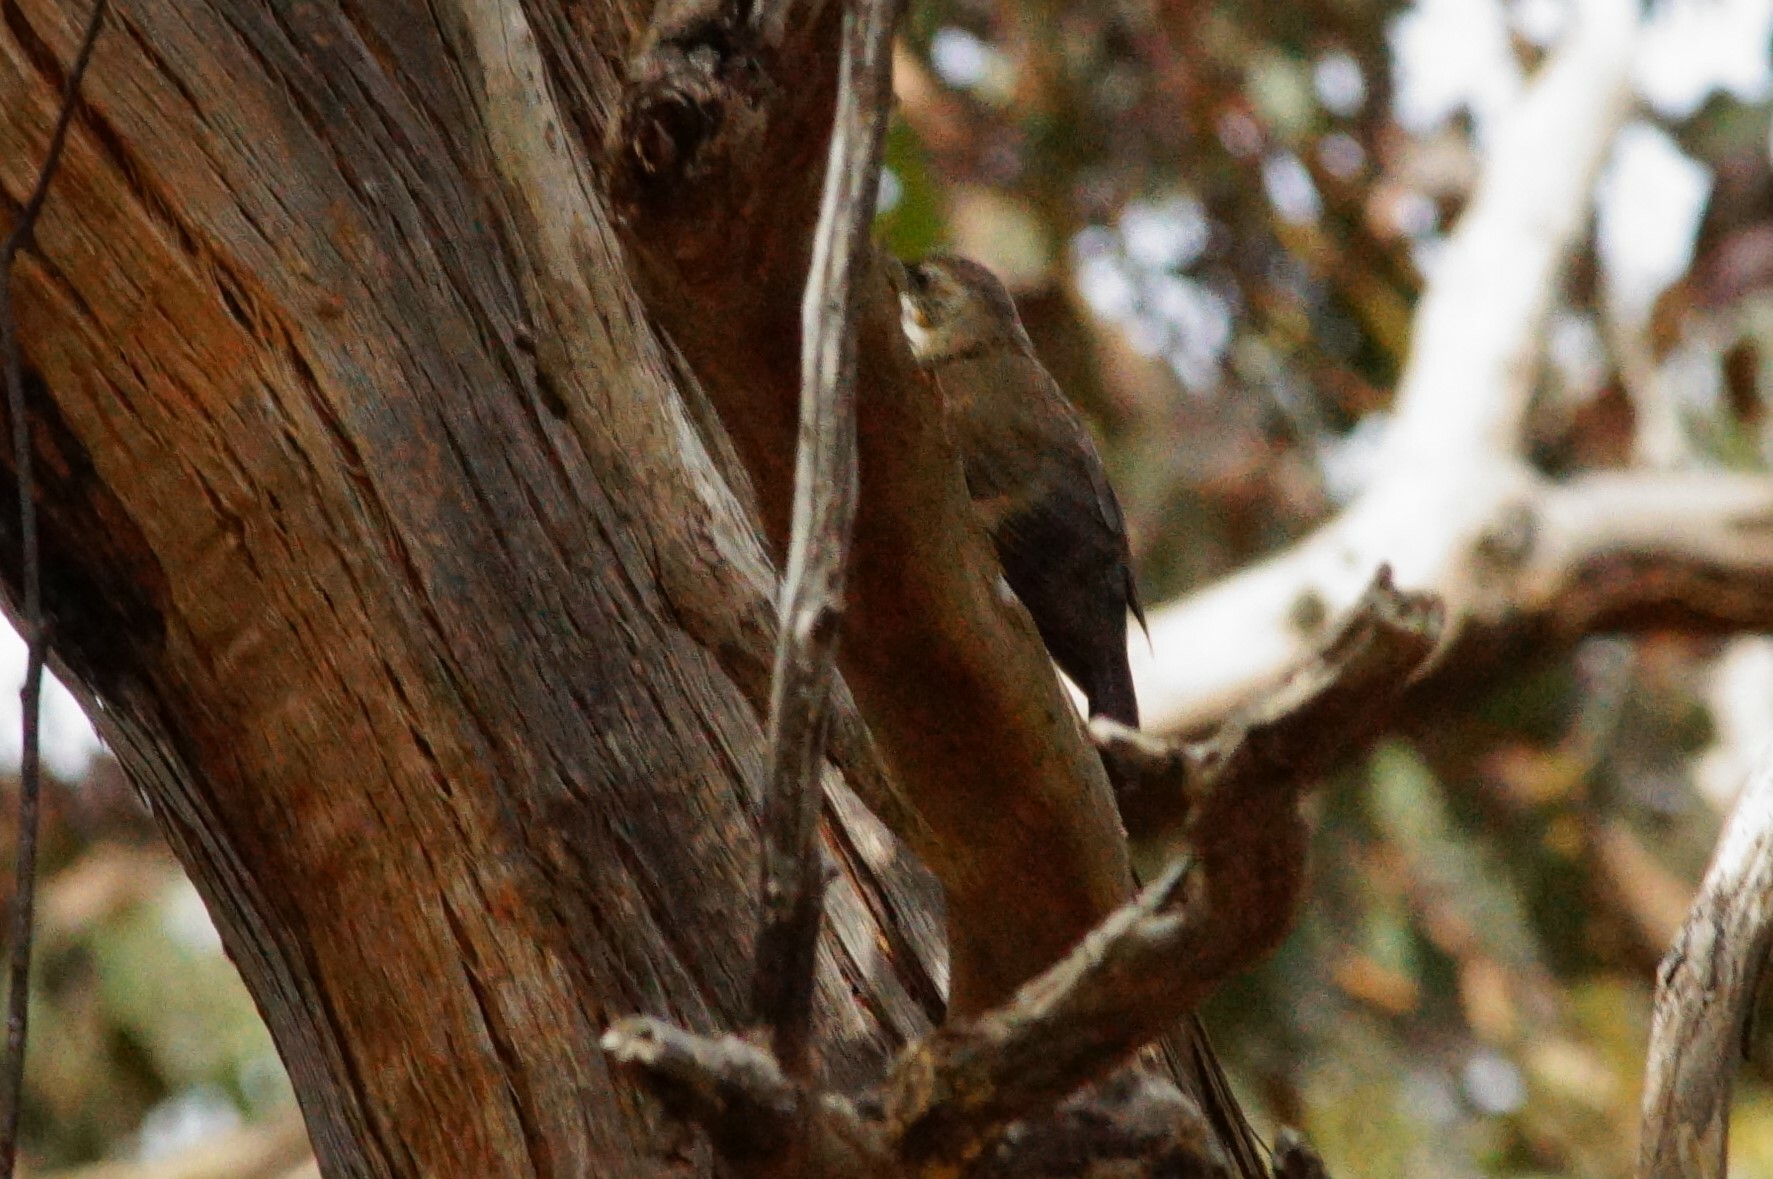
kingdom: Animalia
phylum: Chordata
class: Aves
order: Passeriformes
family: Climacteridae
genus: Cormobates
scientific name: Cormobates leucophaea
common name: White-throated treecreeper
